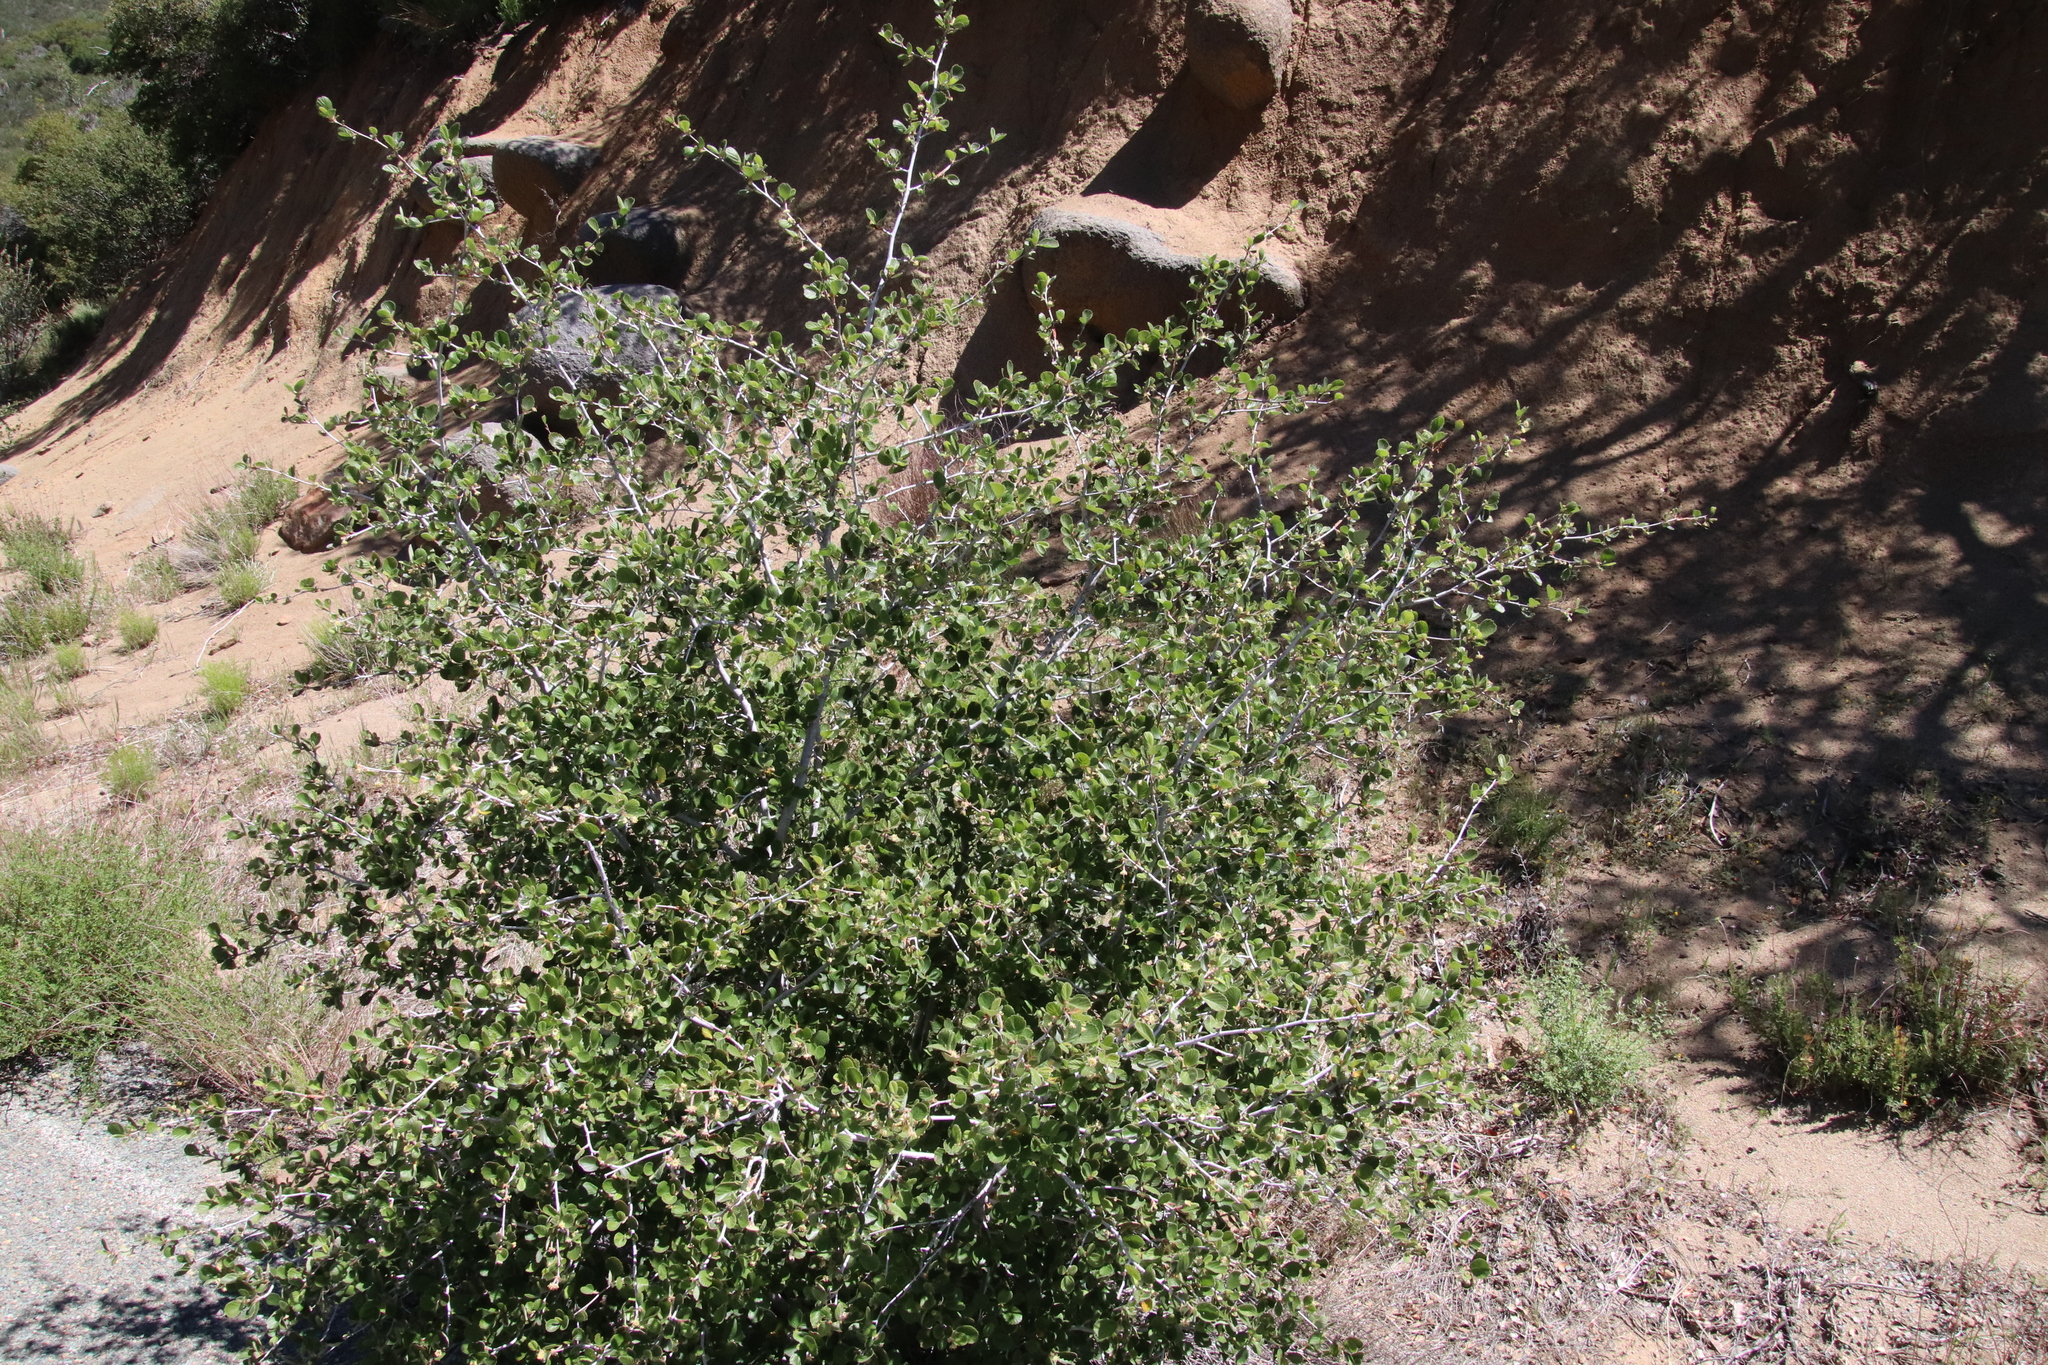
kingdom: Plantae
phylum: Tracheophyta
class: Magnoliopsida
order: Rosales
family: Rosaceae
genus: Cercocarpus
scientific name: Cercocarpus betuloides
